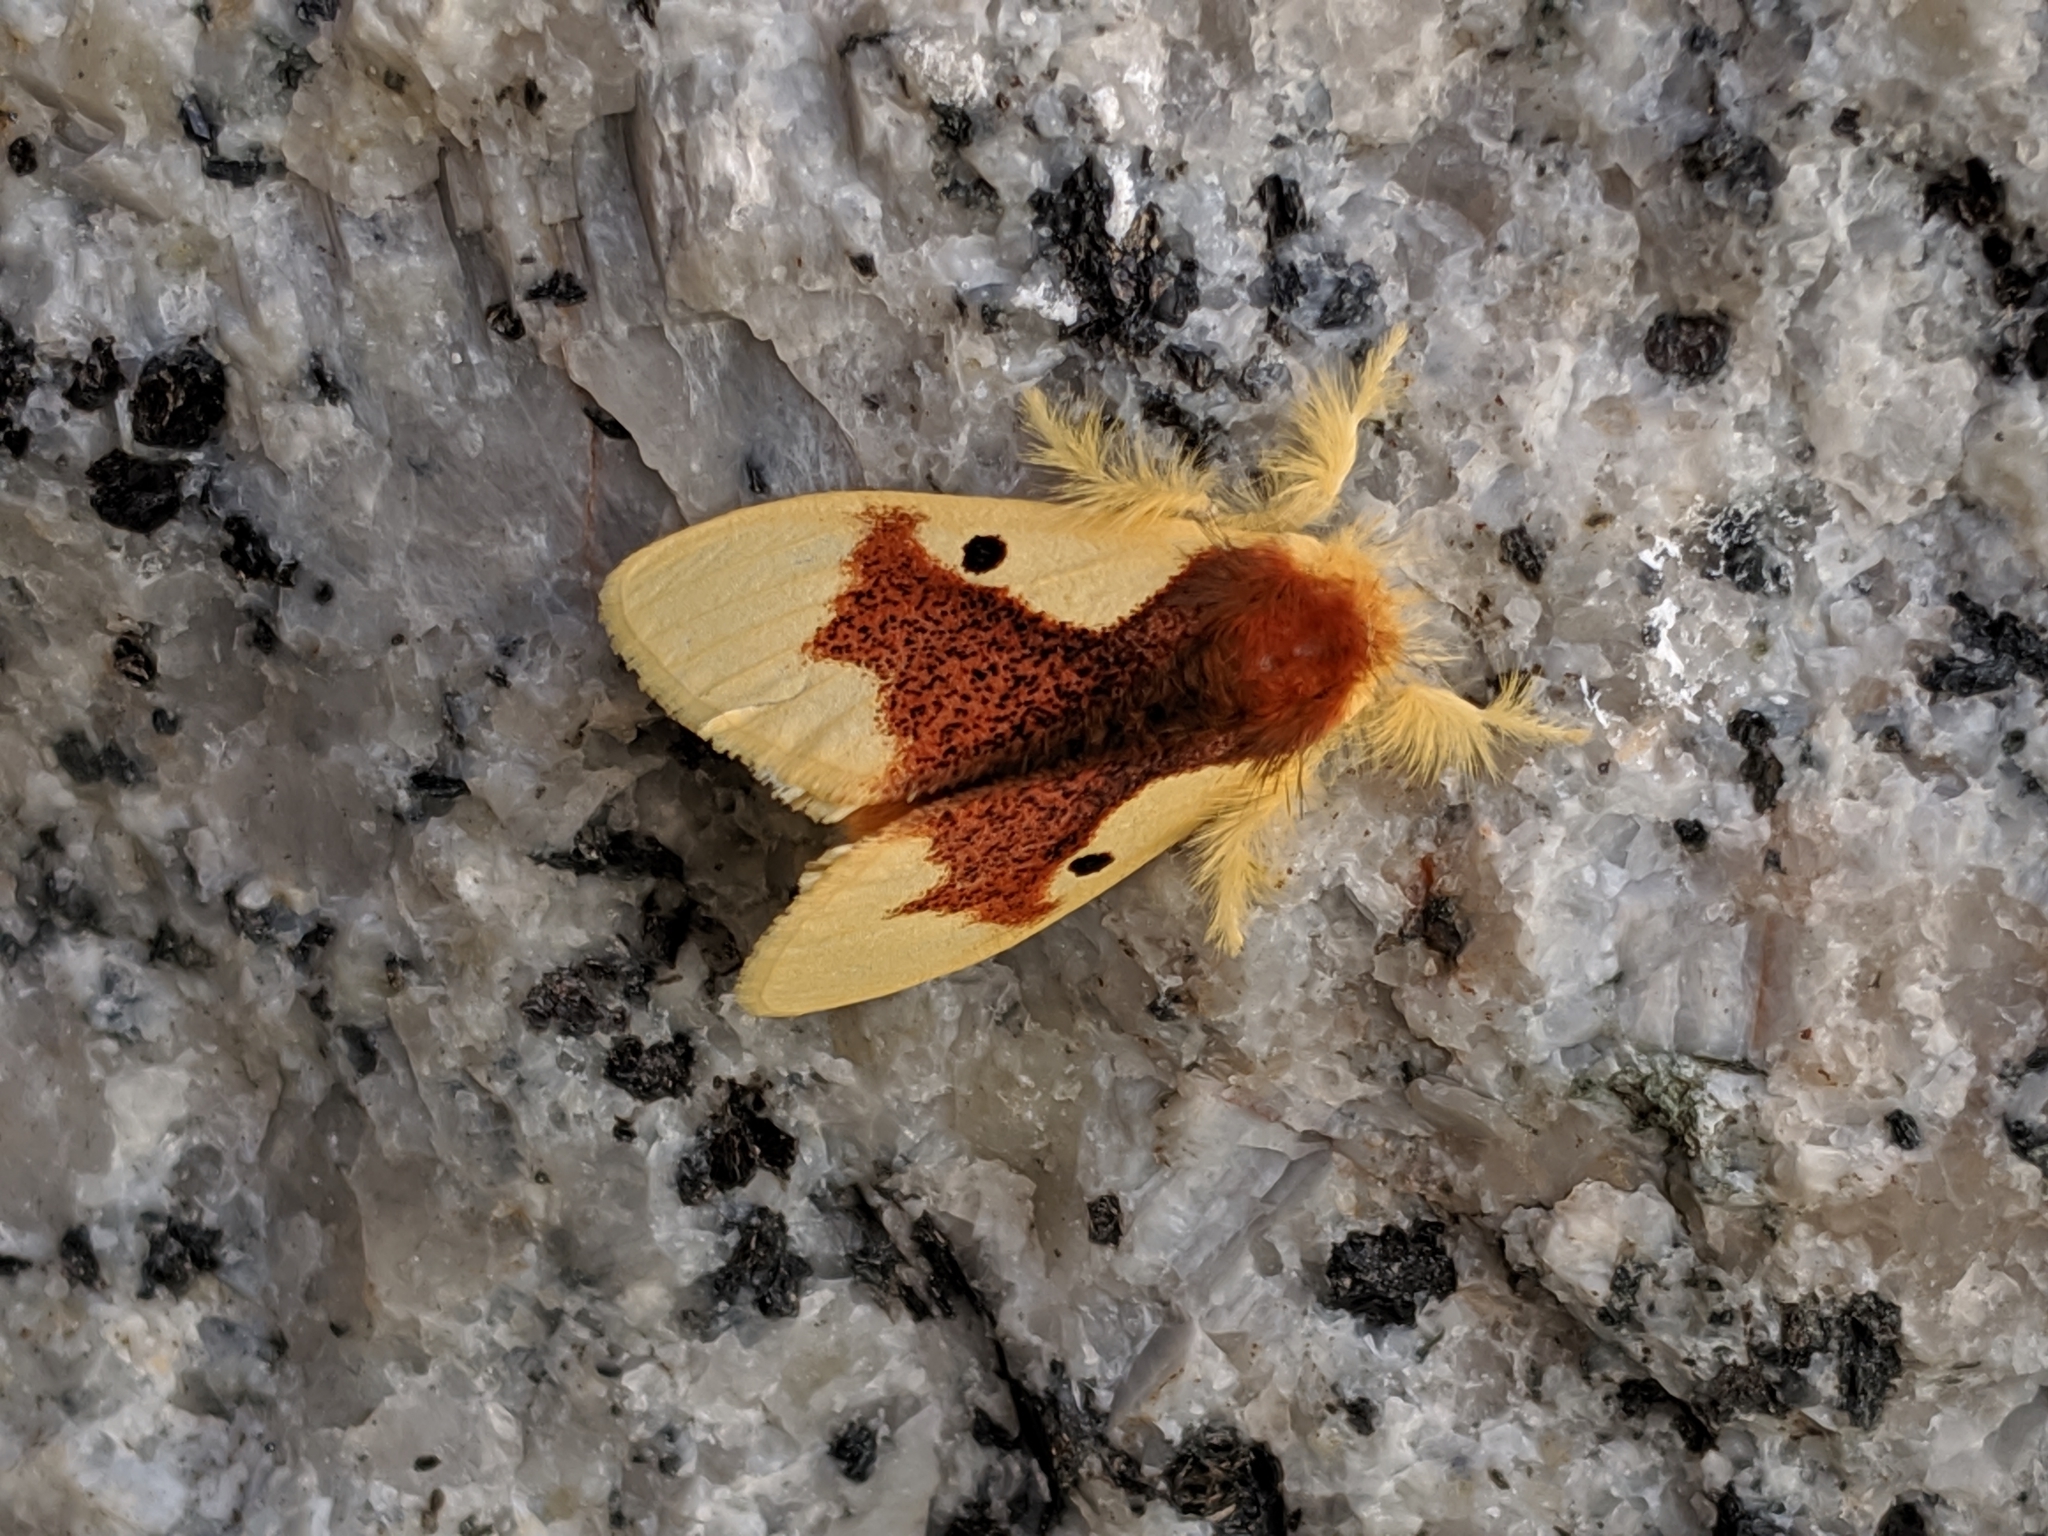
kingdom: Animalia
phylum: Arthropoda
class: Insecta
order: Lepidoptera
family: Erebidae
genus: Nygmia
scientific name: Nygmia solitaria
